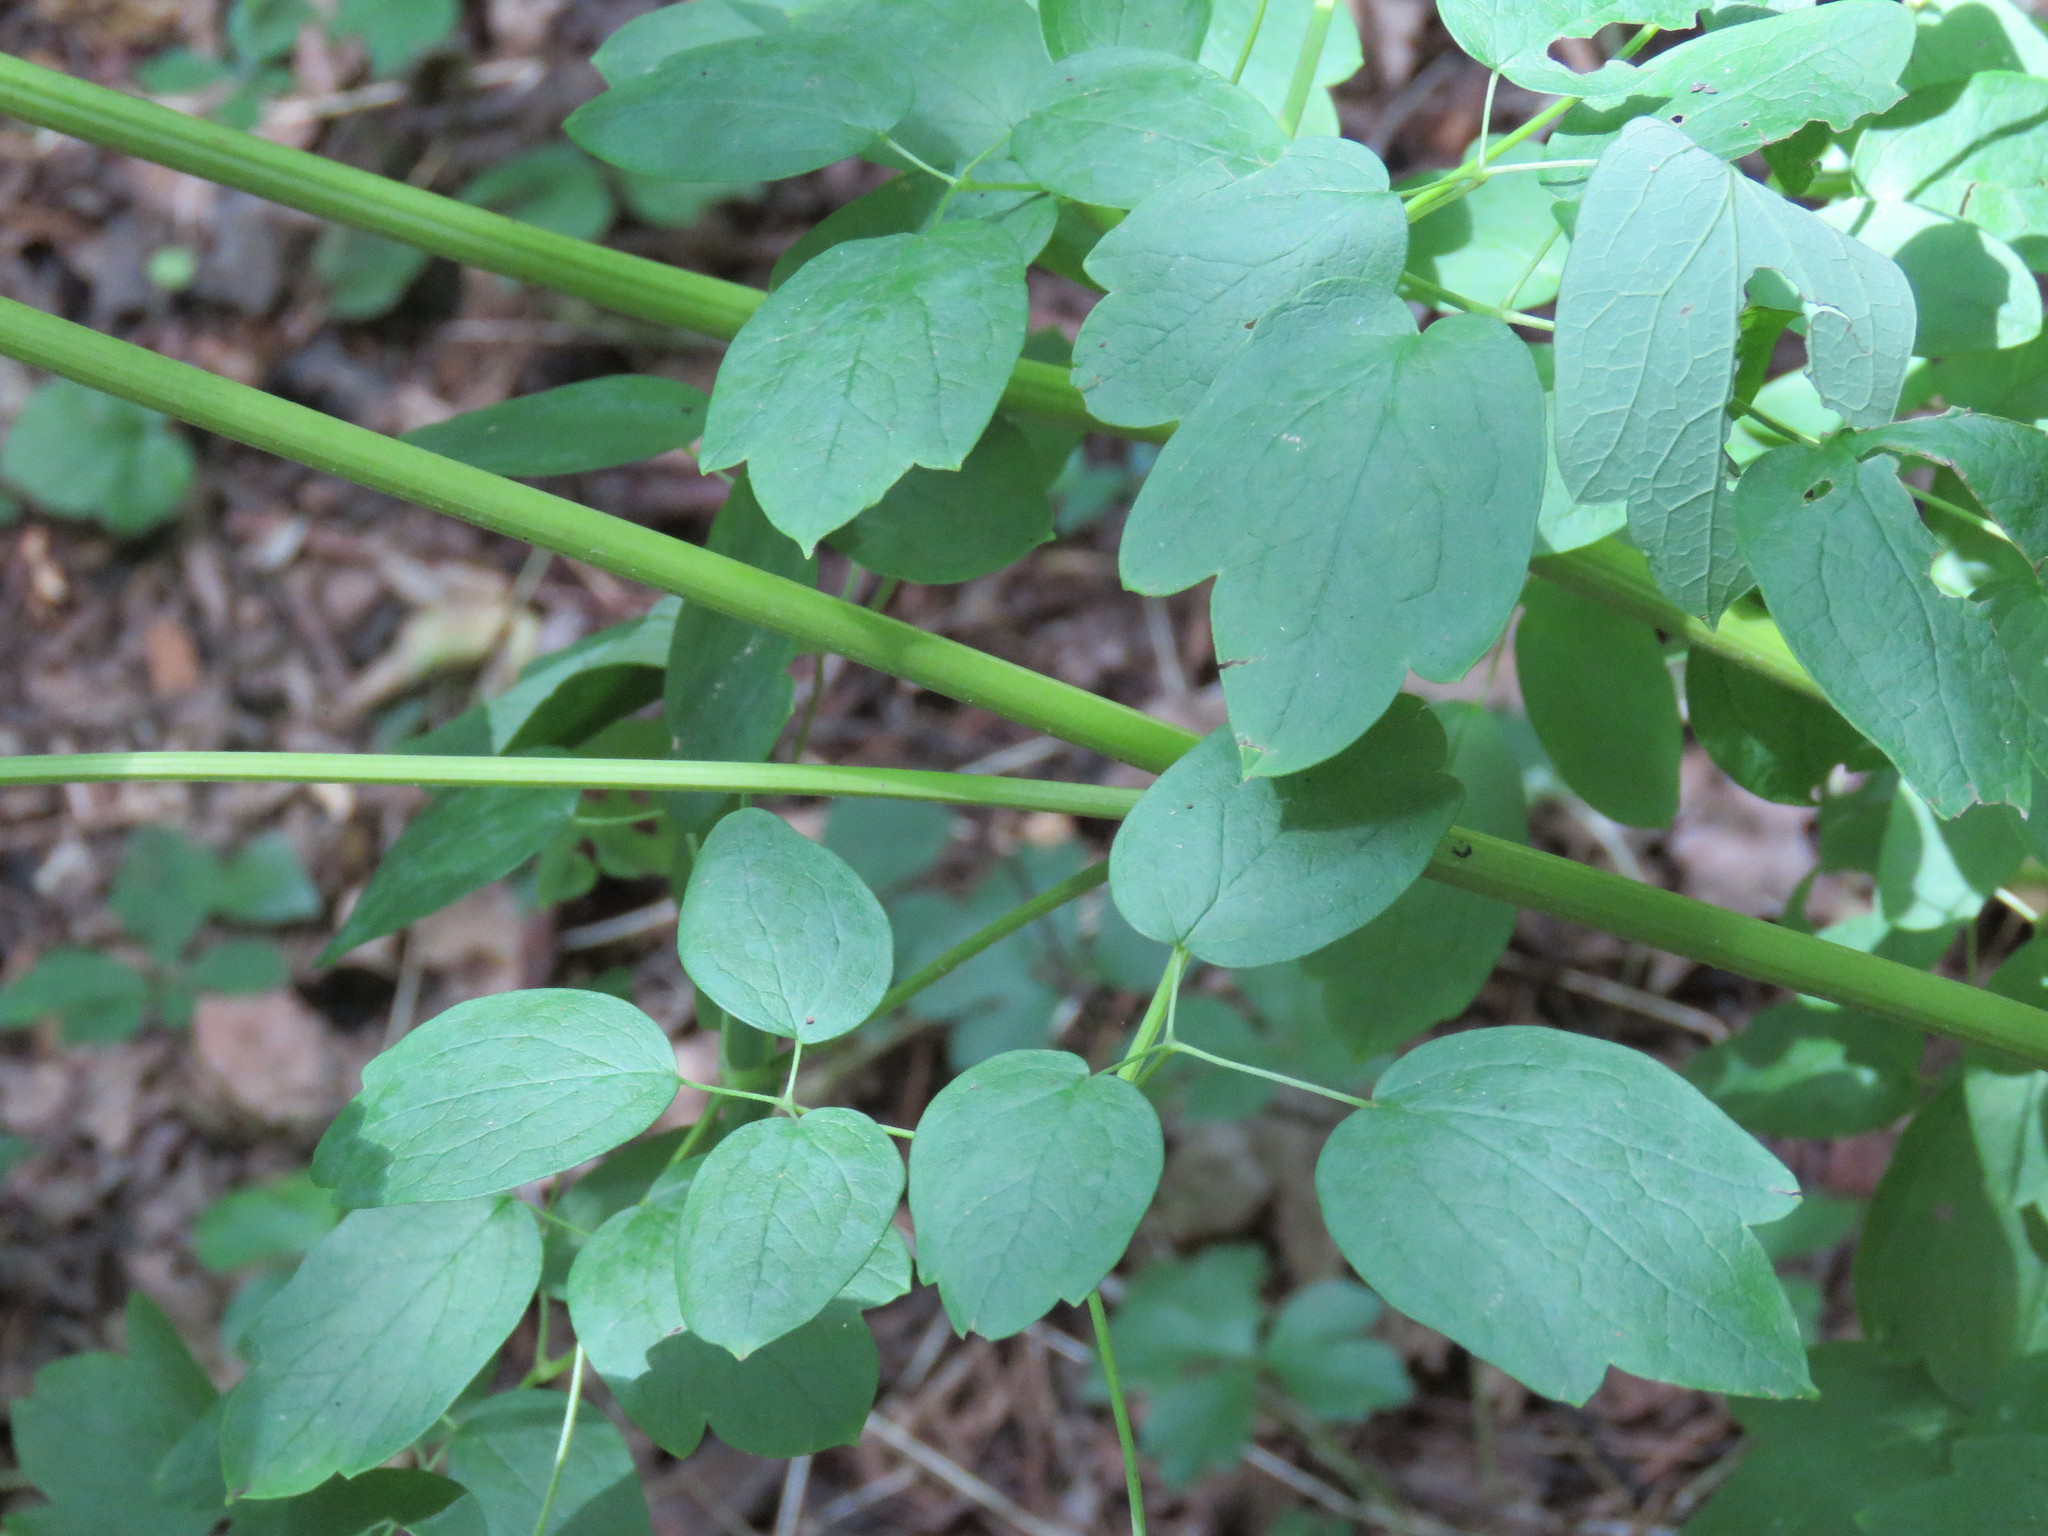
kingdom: Plantae
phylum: Tracheophyta
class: Magnoliopsida
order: Ranunculales
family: Ranunculaceae
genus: Thalictrum
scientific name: Thalictrum dasycarpum
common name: Purple meadow-rue
